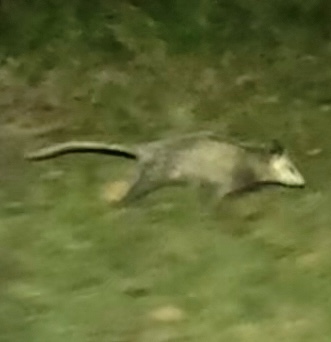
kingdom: Animalia
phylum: Chordata
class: Mammalia
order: Didelphimorphia
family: Didelphidae
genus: Didelphis
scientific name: Didelphis virginiana
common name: Virginia opossum
